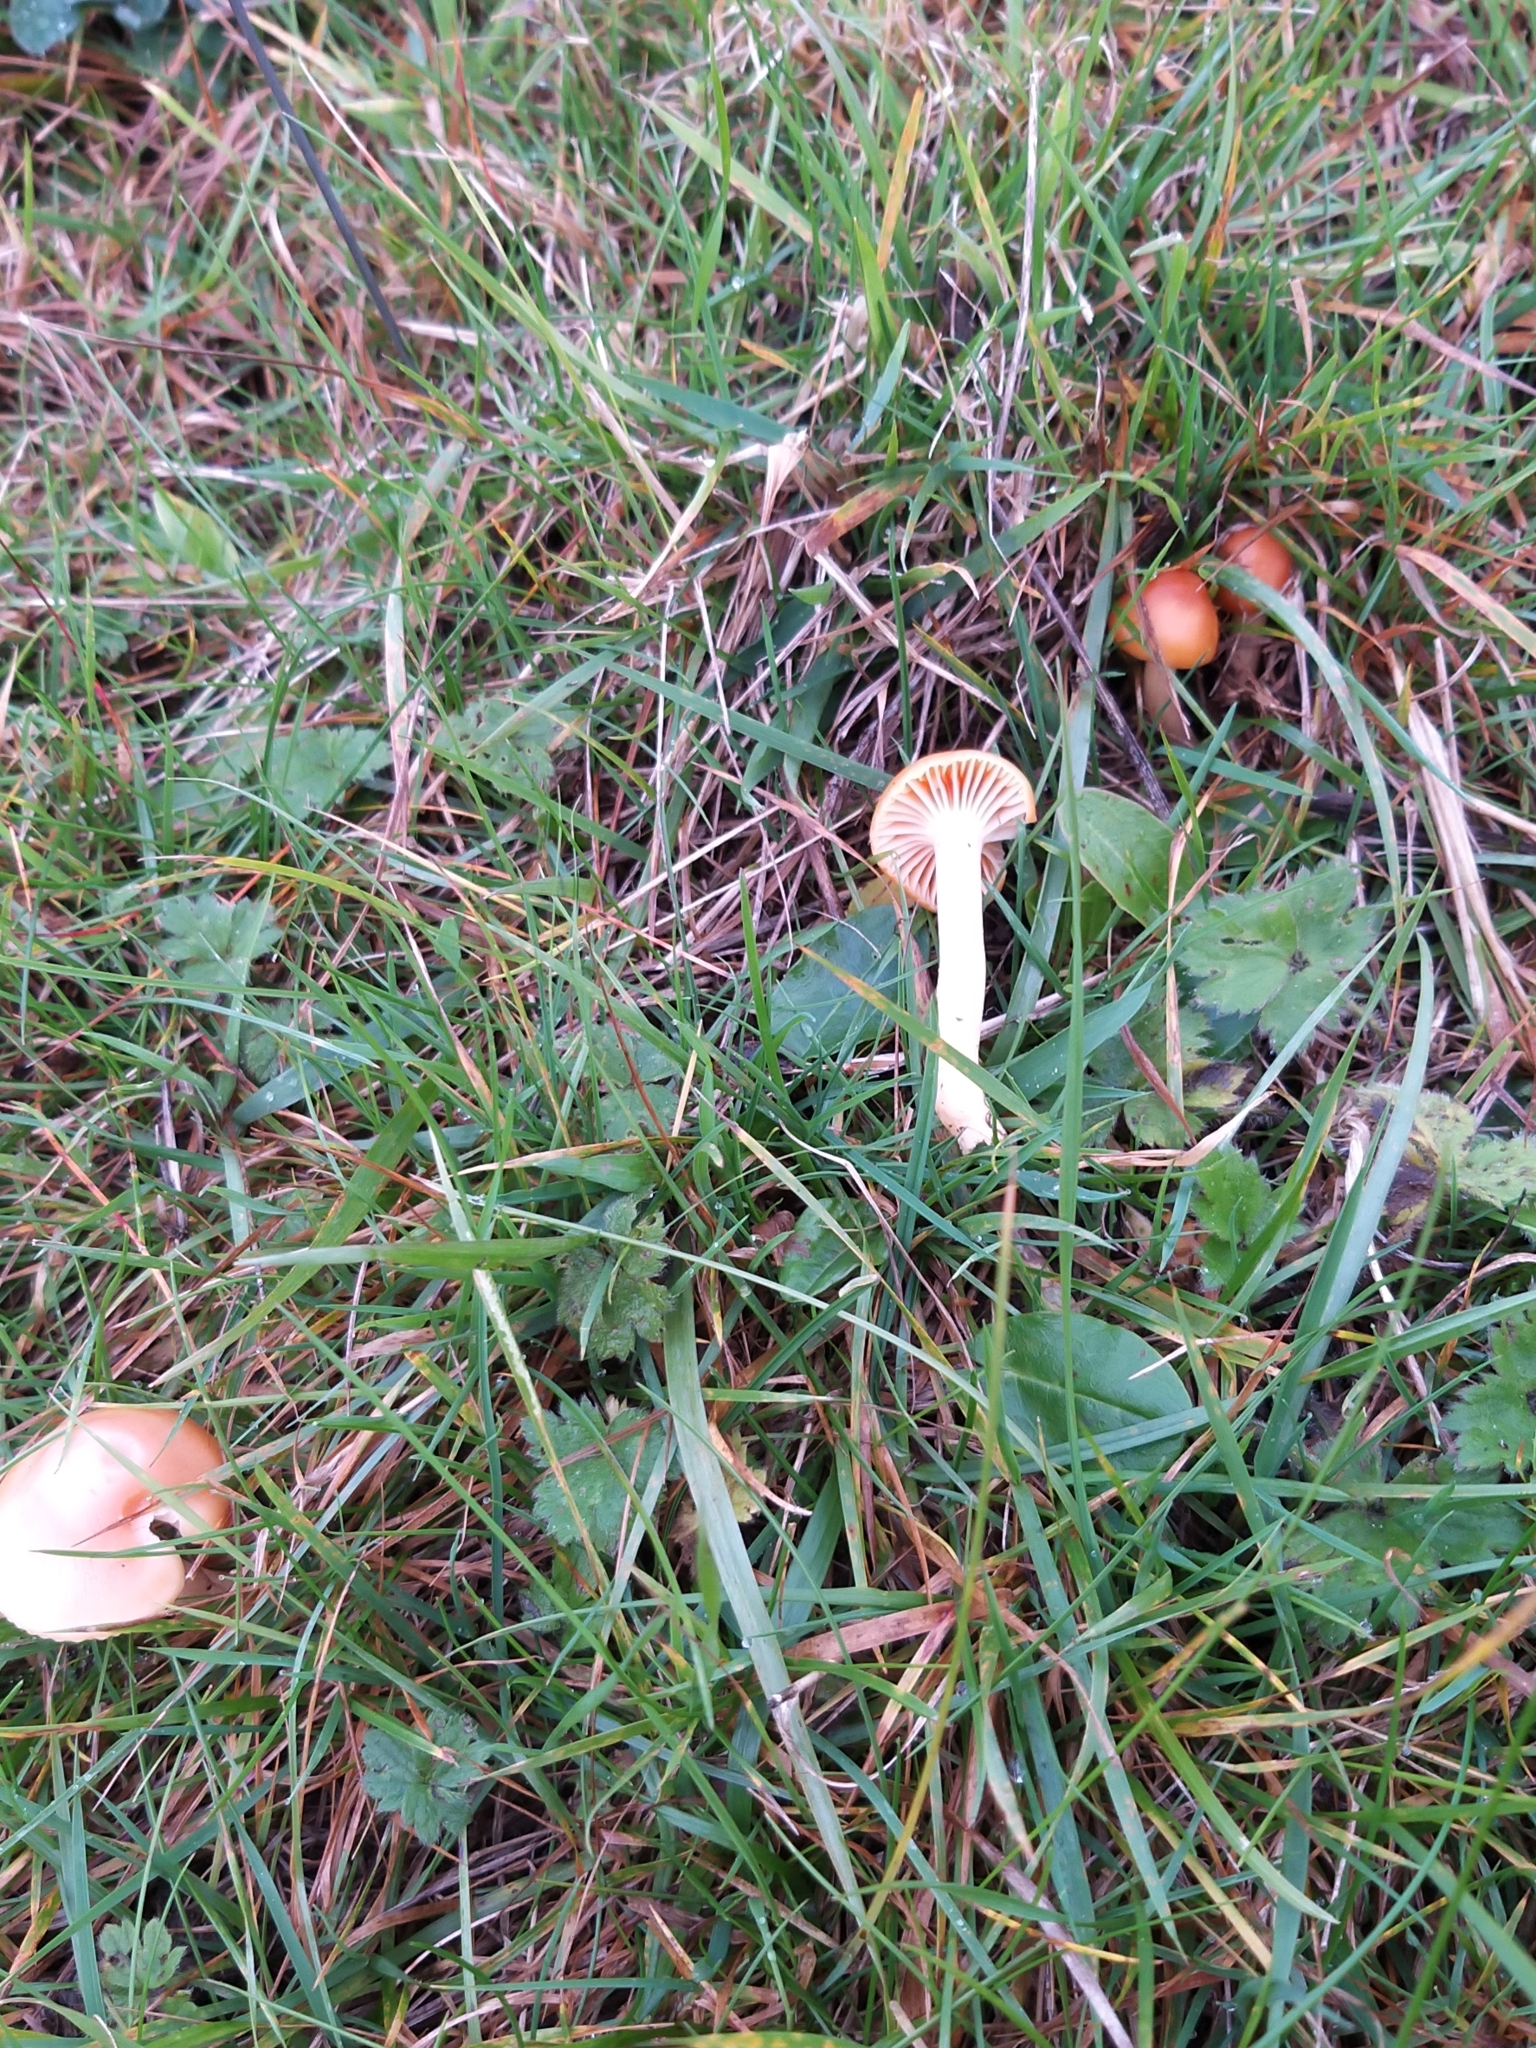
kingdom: Fungi
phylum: Basidiomycota
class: Agaricomycetes
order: Agaricales
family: Hygrophoraceae
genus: Cuphophyllus
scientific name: Cuphophyllus pratensis
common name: Meadow waxcap
